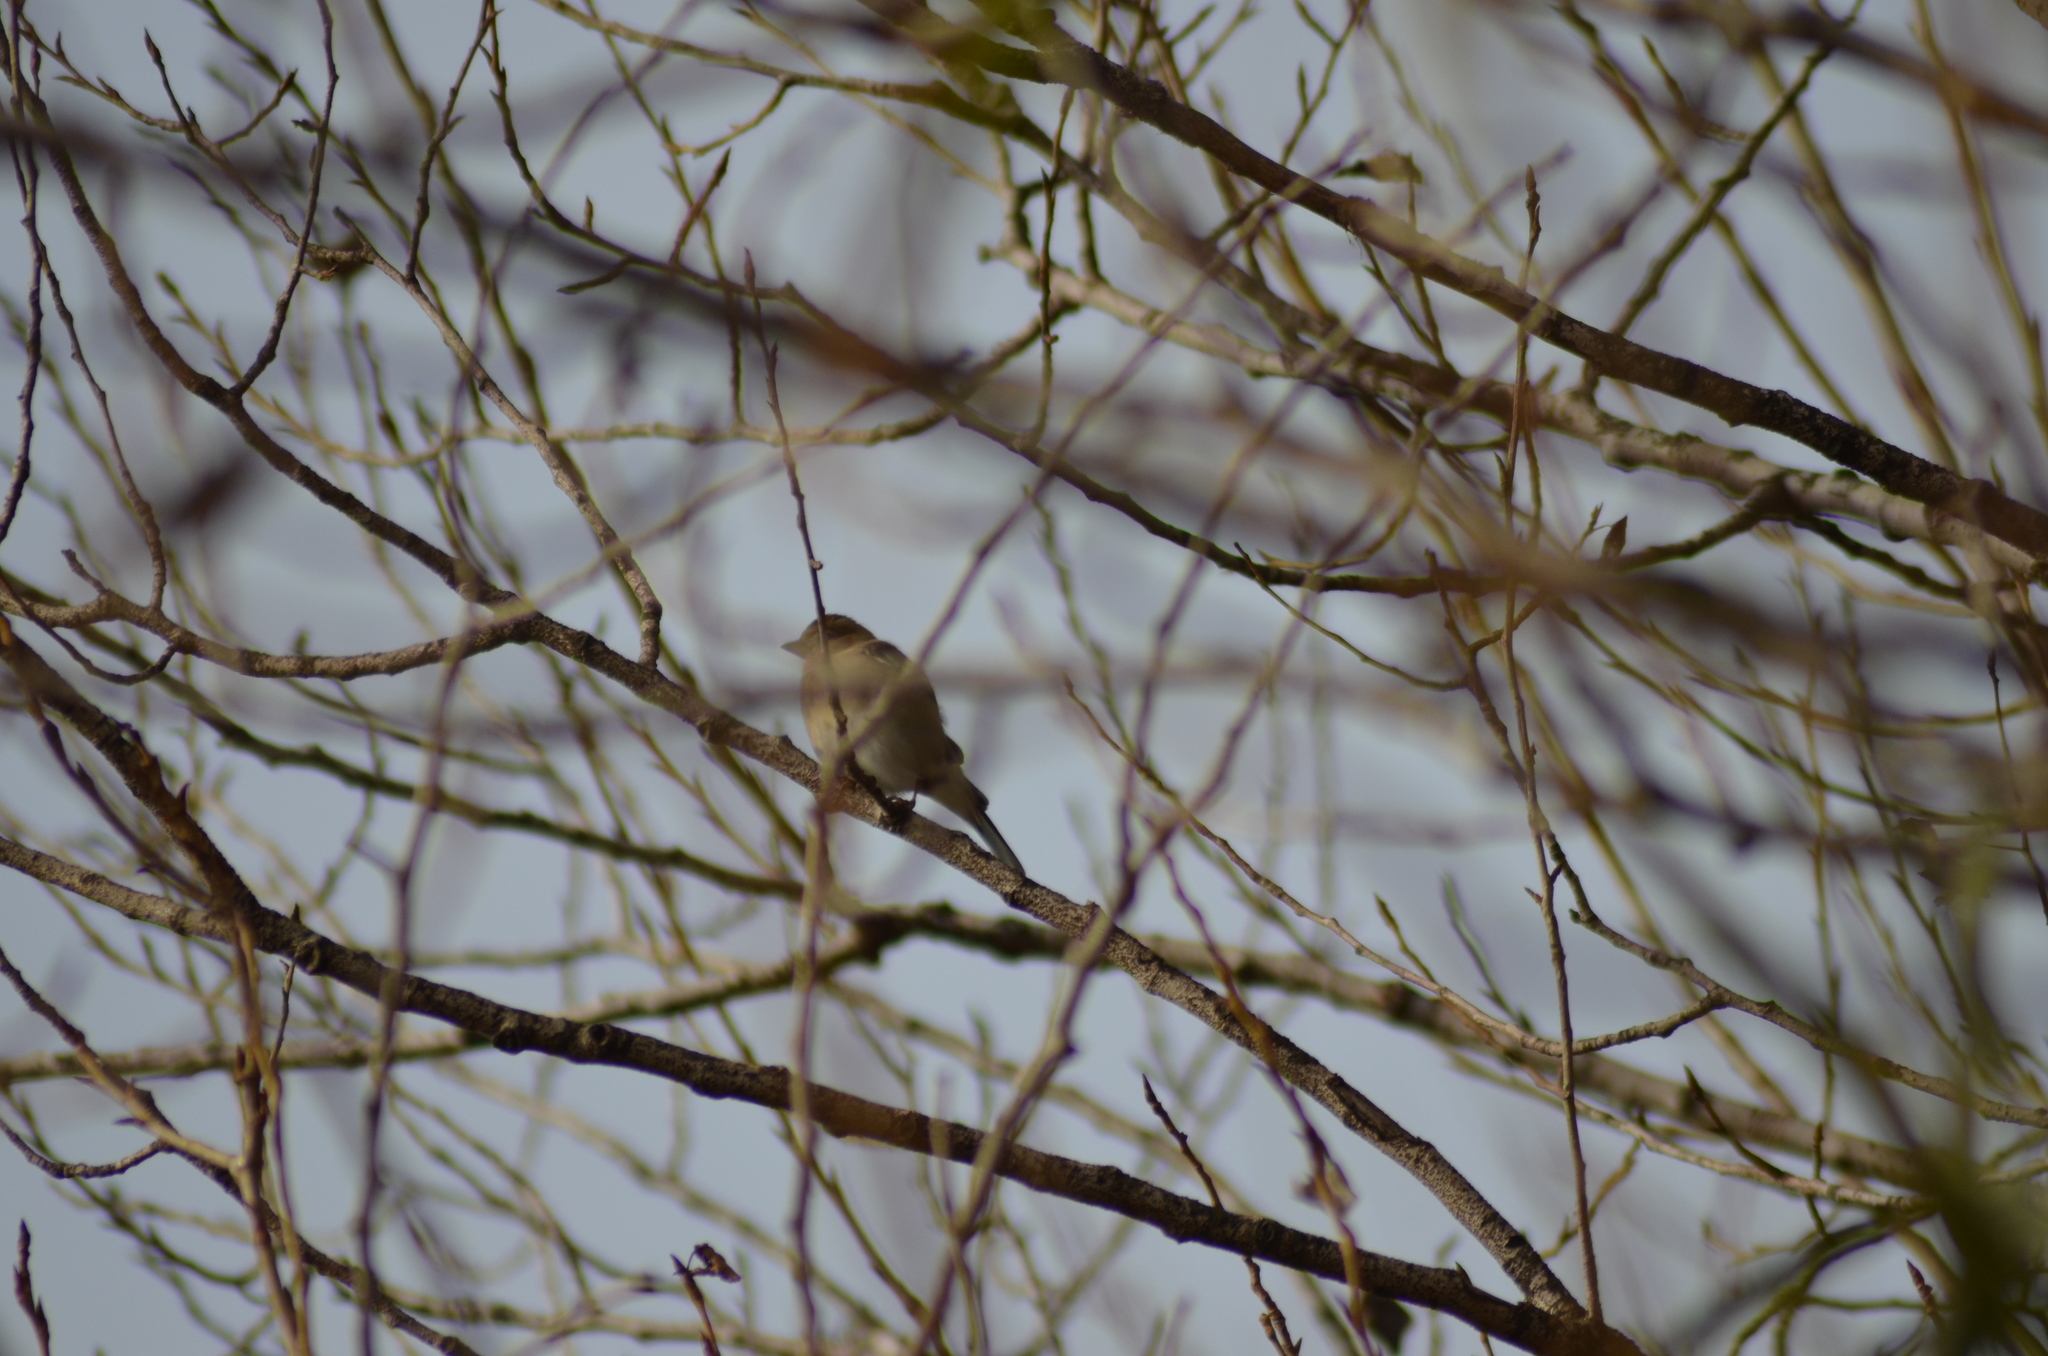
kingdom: Animalia
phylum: Chordata
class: Aves
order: Passeriformes
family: Fringillidae
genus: Fringilla
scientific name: Fringilla coelebs
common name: Common chaffinch
